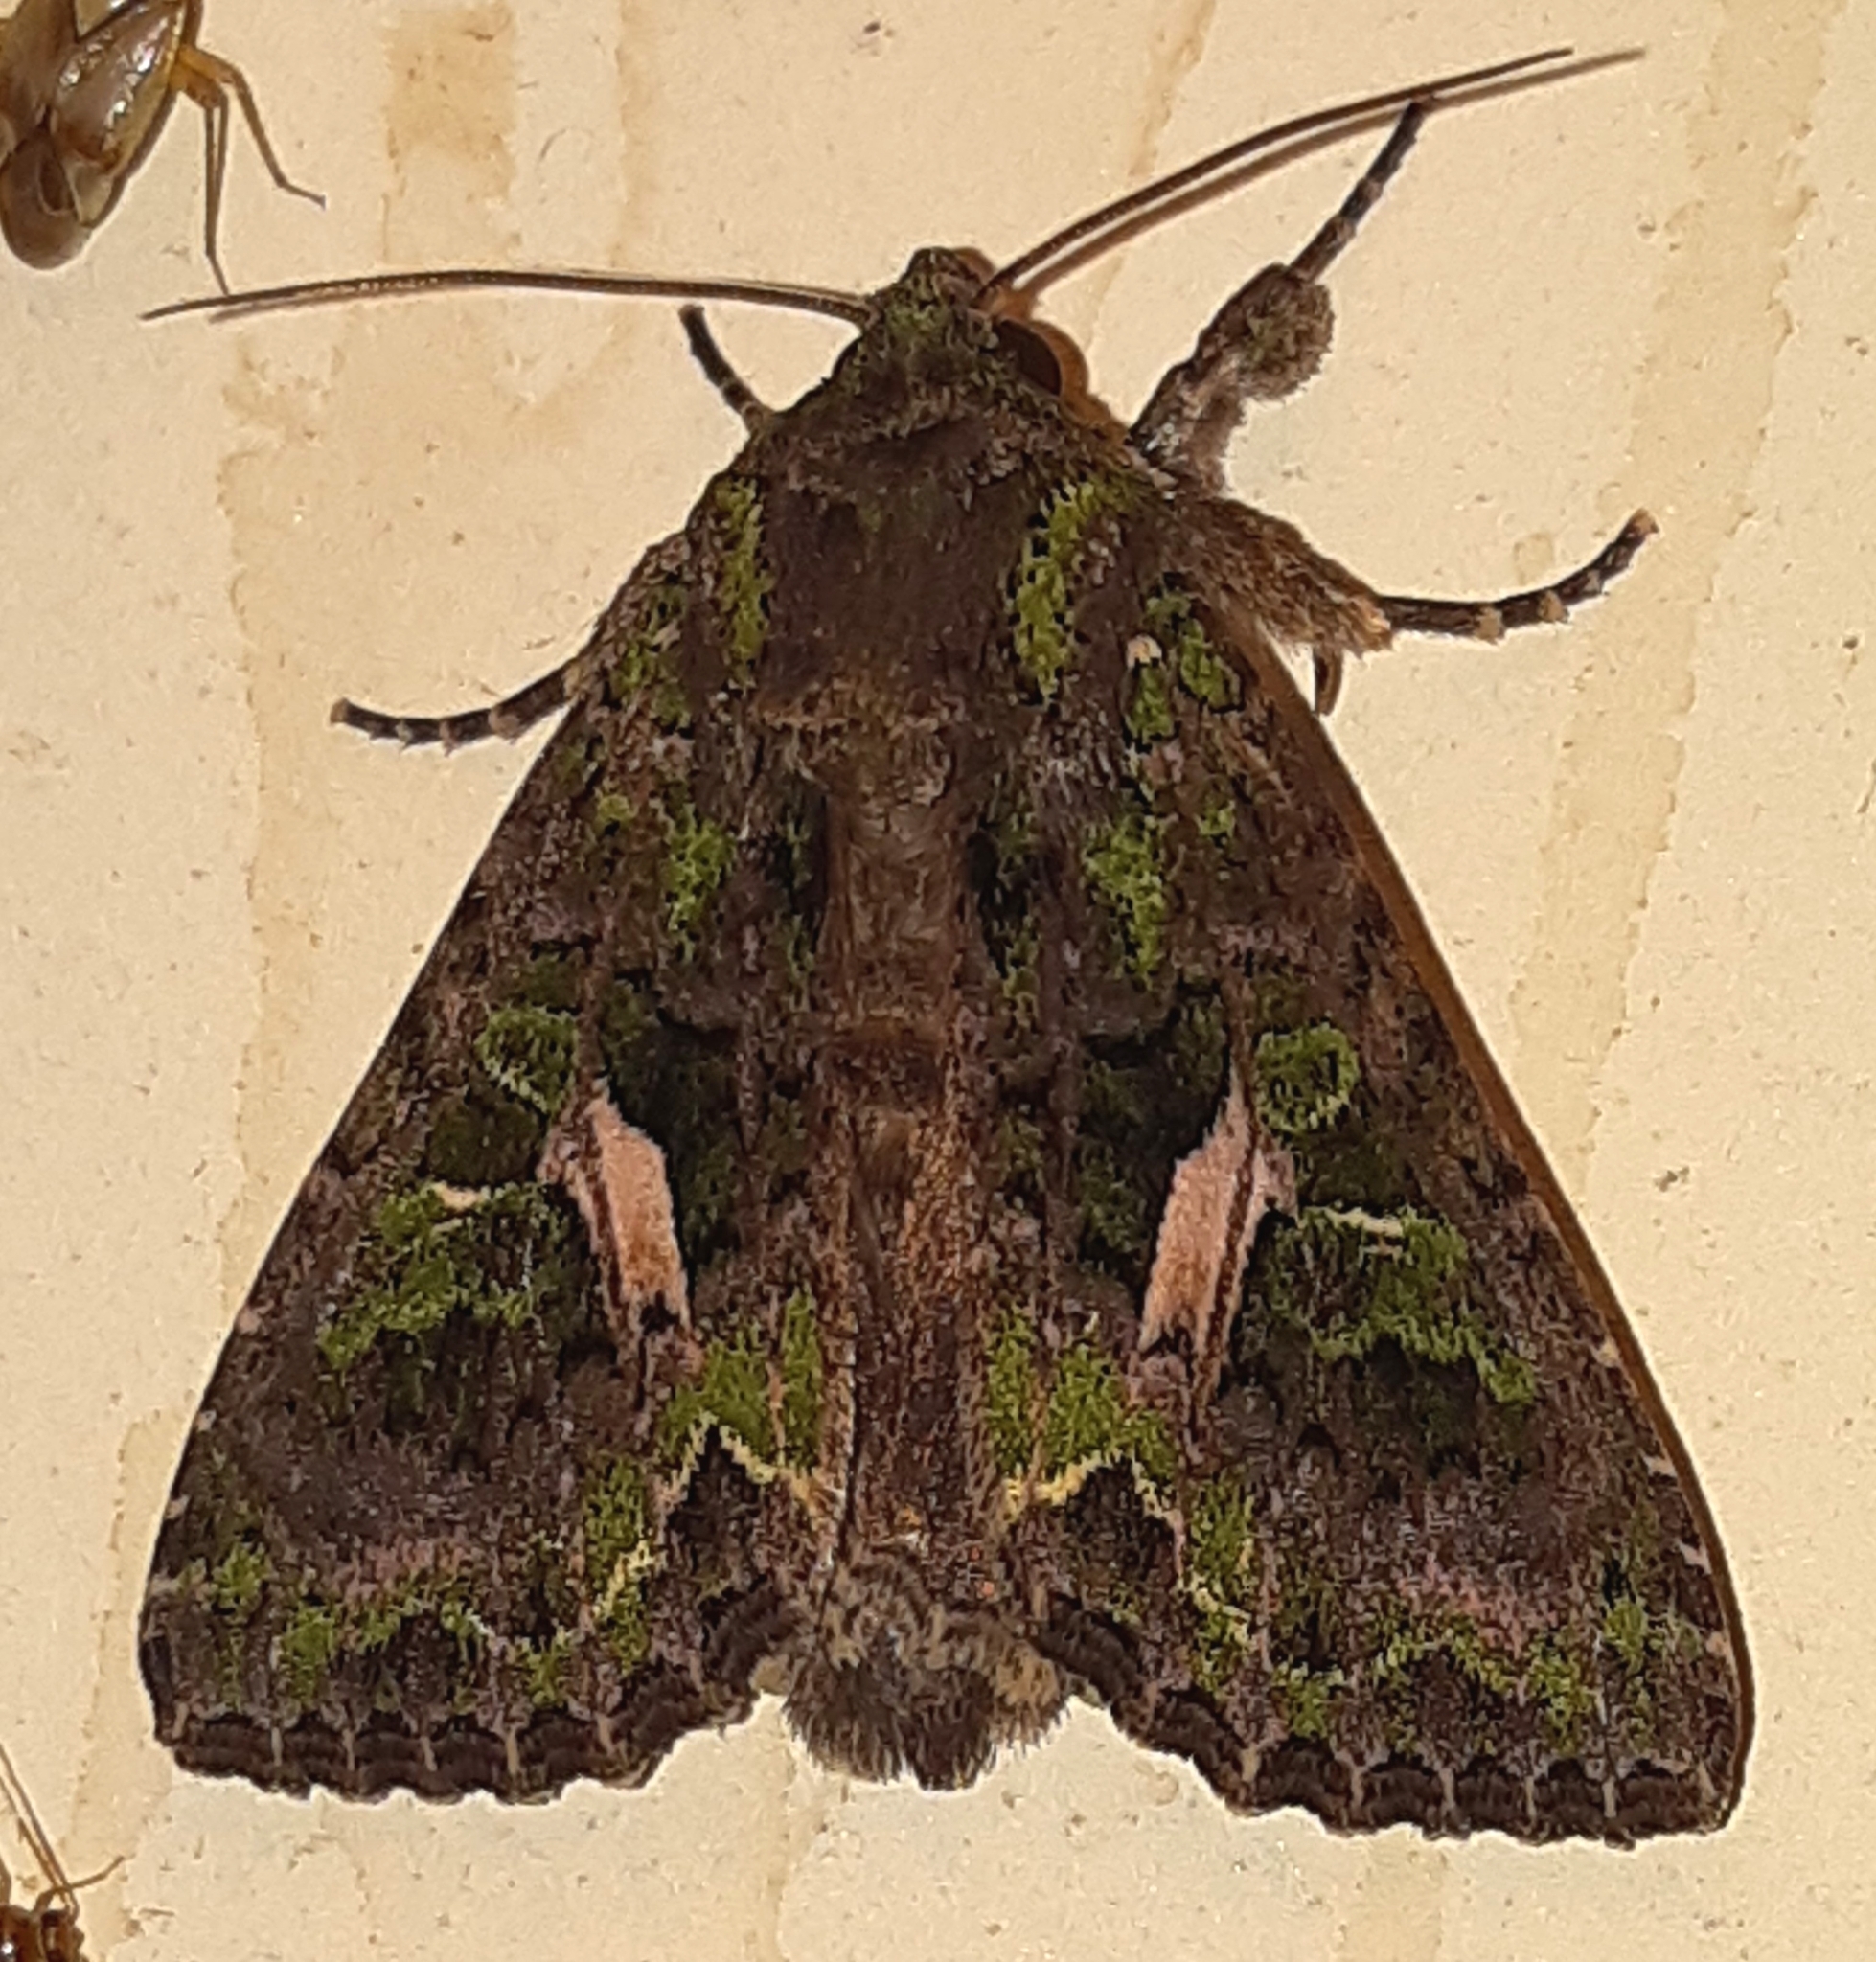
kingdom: Animalia
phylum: Arthropoda
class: Insecta
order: Lepidoptera
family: Noctuidae
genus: Trachea
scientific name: Trachea atriplicis
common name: Orache moth
